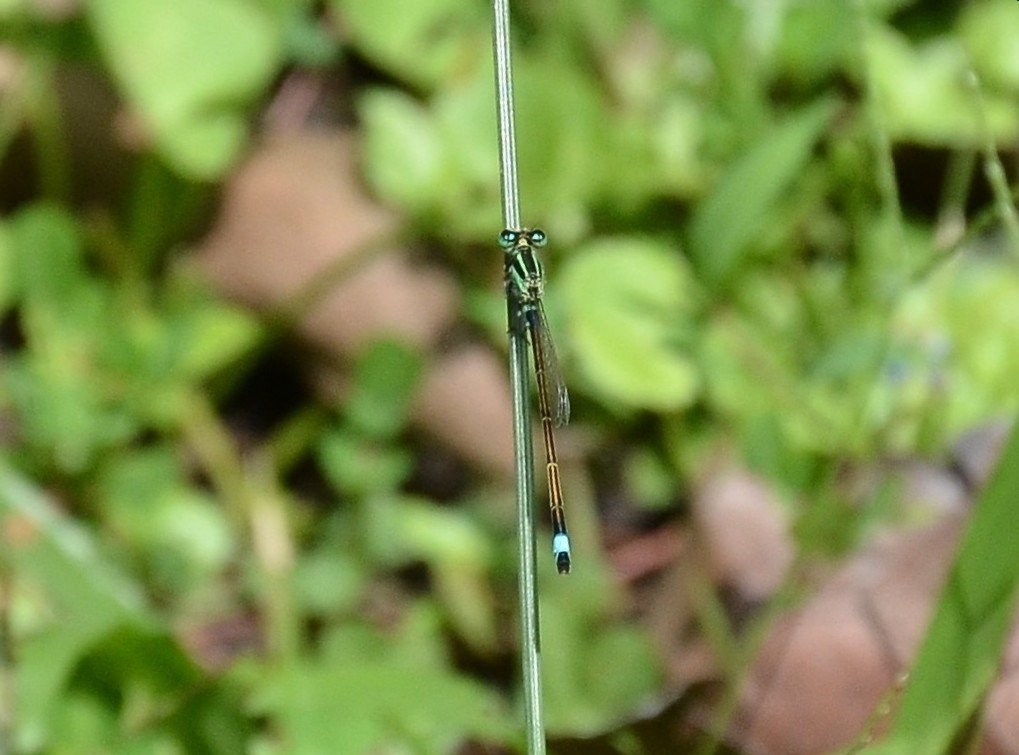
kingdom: Animalia
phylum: Arthropoda
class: Insecta
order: Odonata
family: Coenagrionidae
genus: Ischnura
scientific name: Ischnura senegalensis
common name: Tropical bluetail
